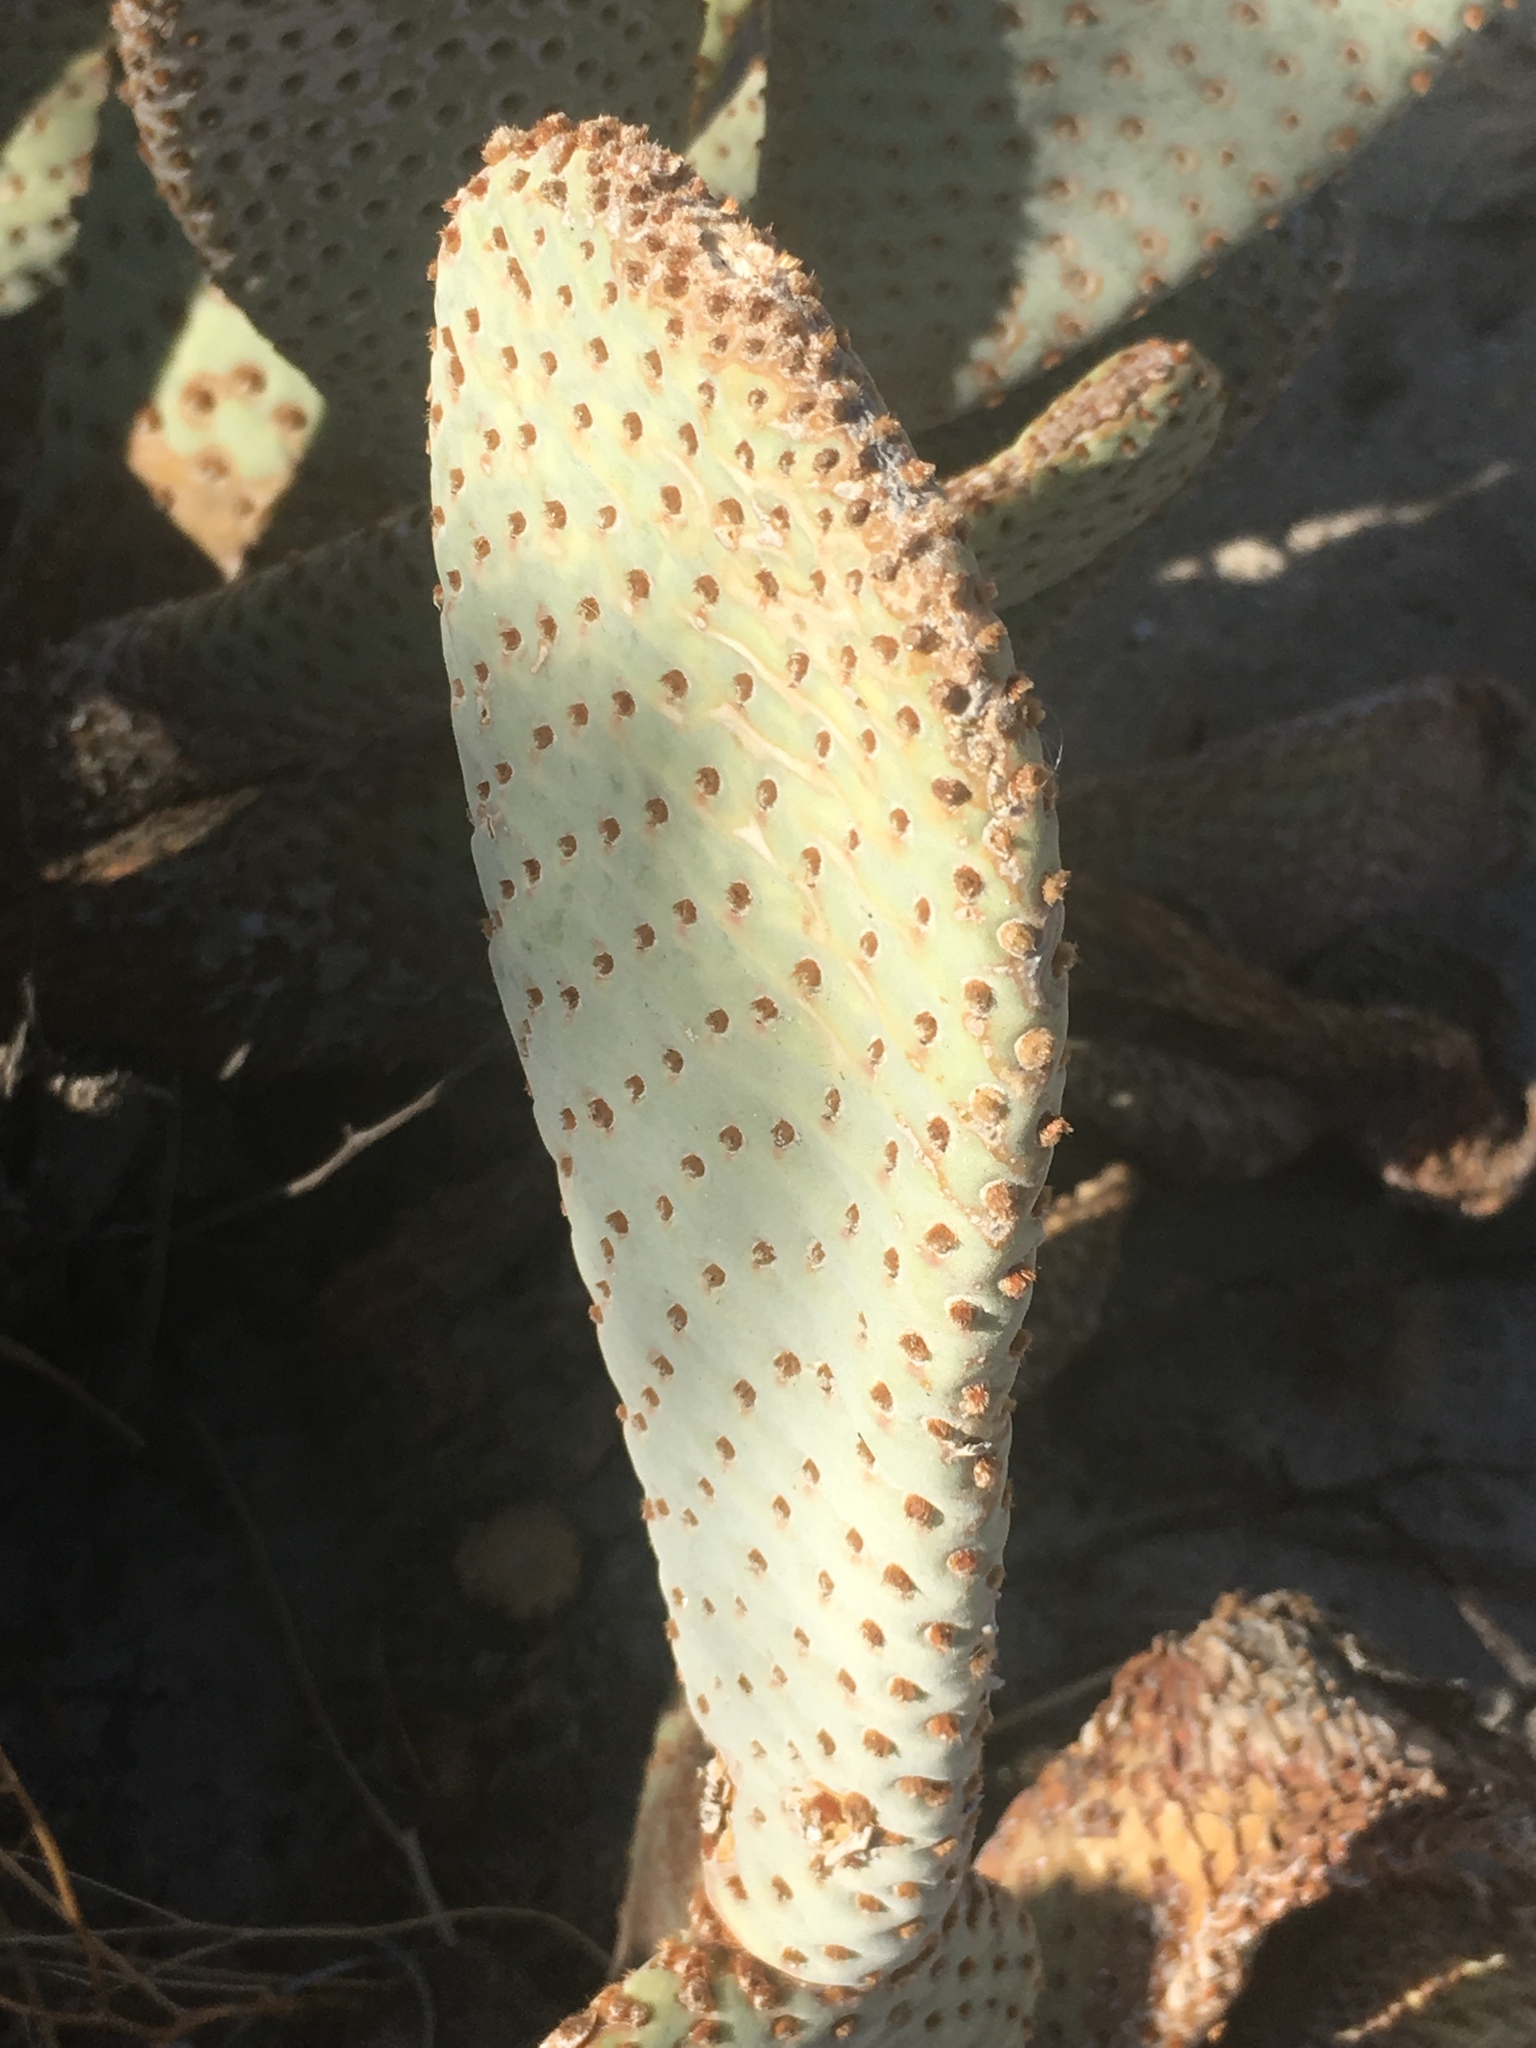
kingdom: Plantae
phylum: Tracheophyta
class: Magnoliopsida
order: Caryophyllales
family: Cactaceae
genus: Opuntia
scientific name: Opuntia basilaris
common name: Beavertail prickly-pear
